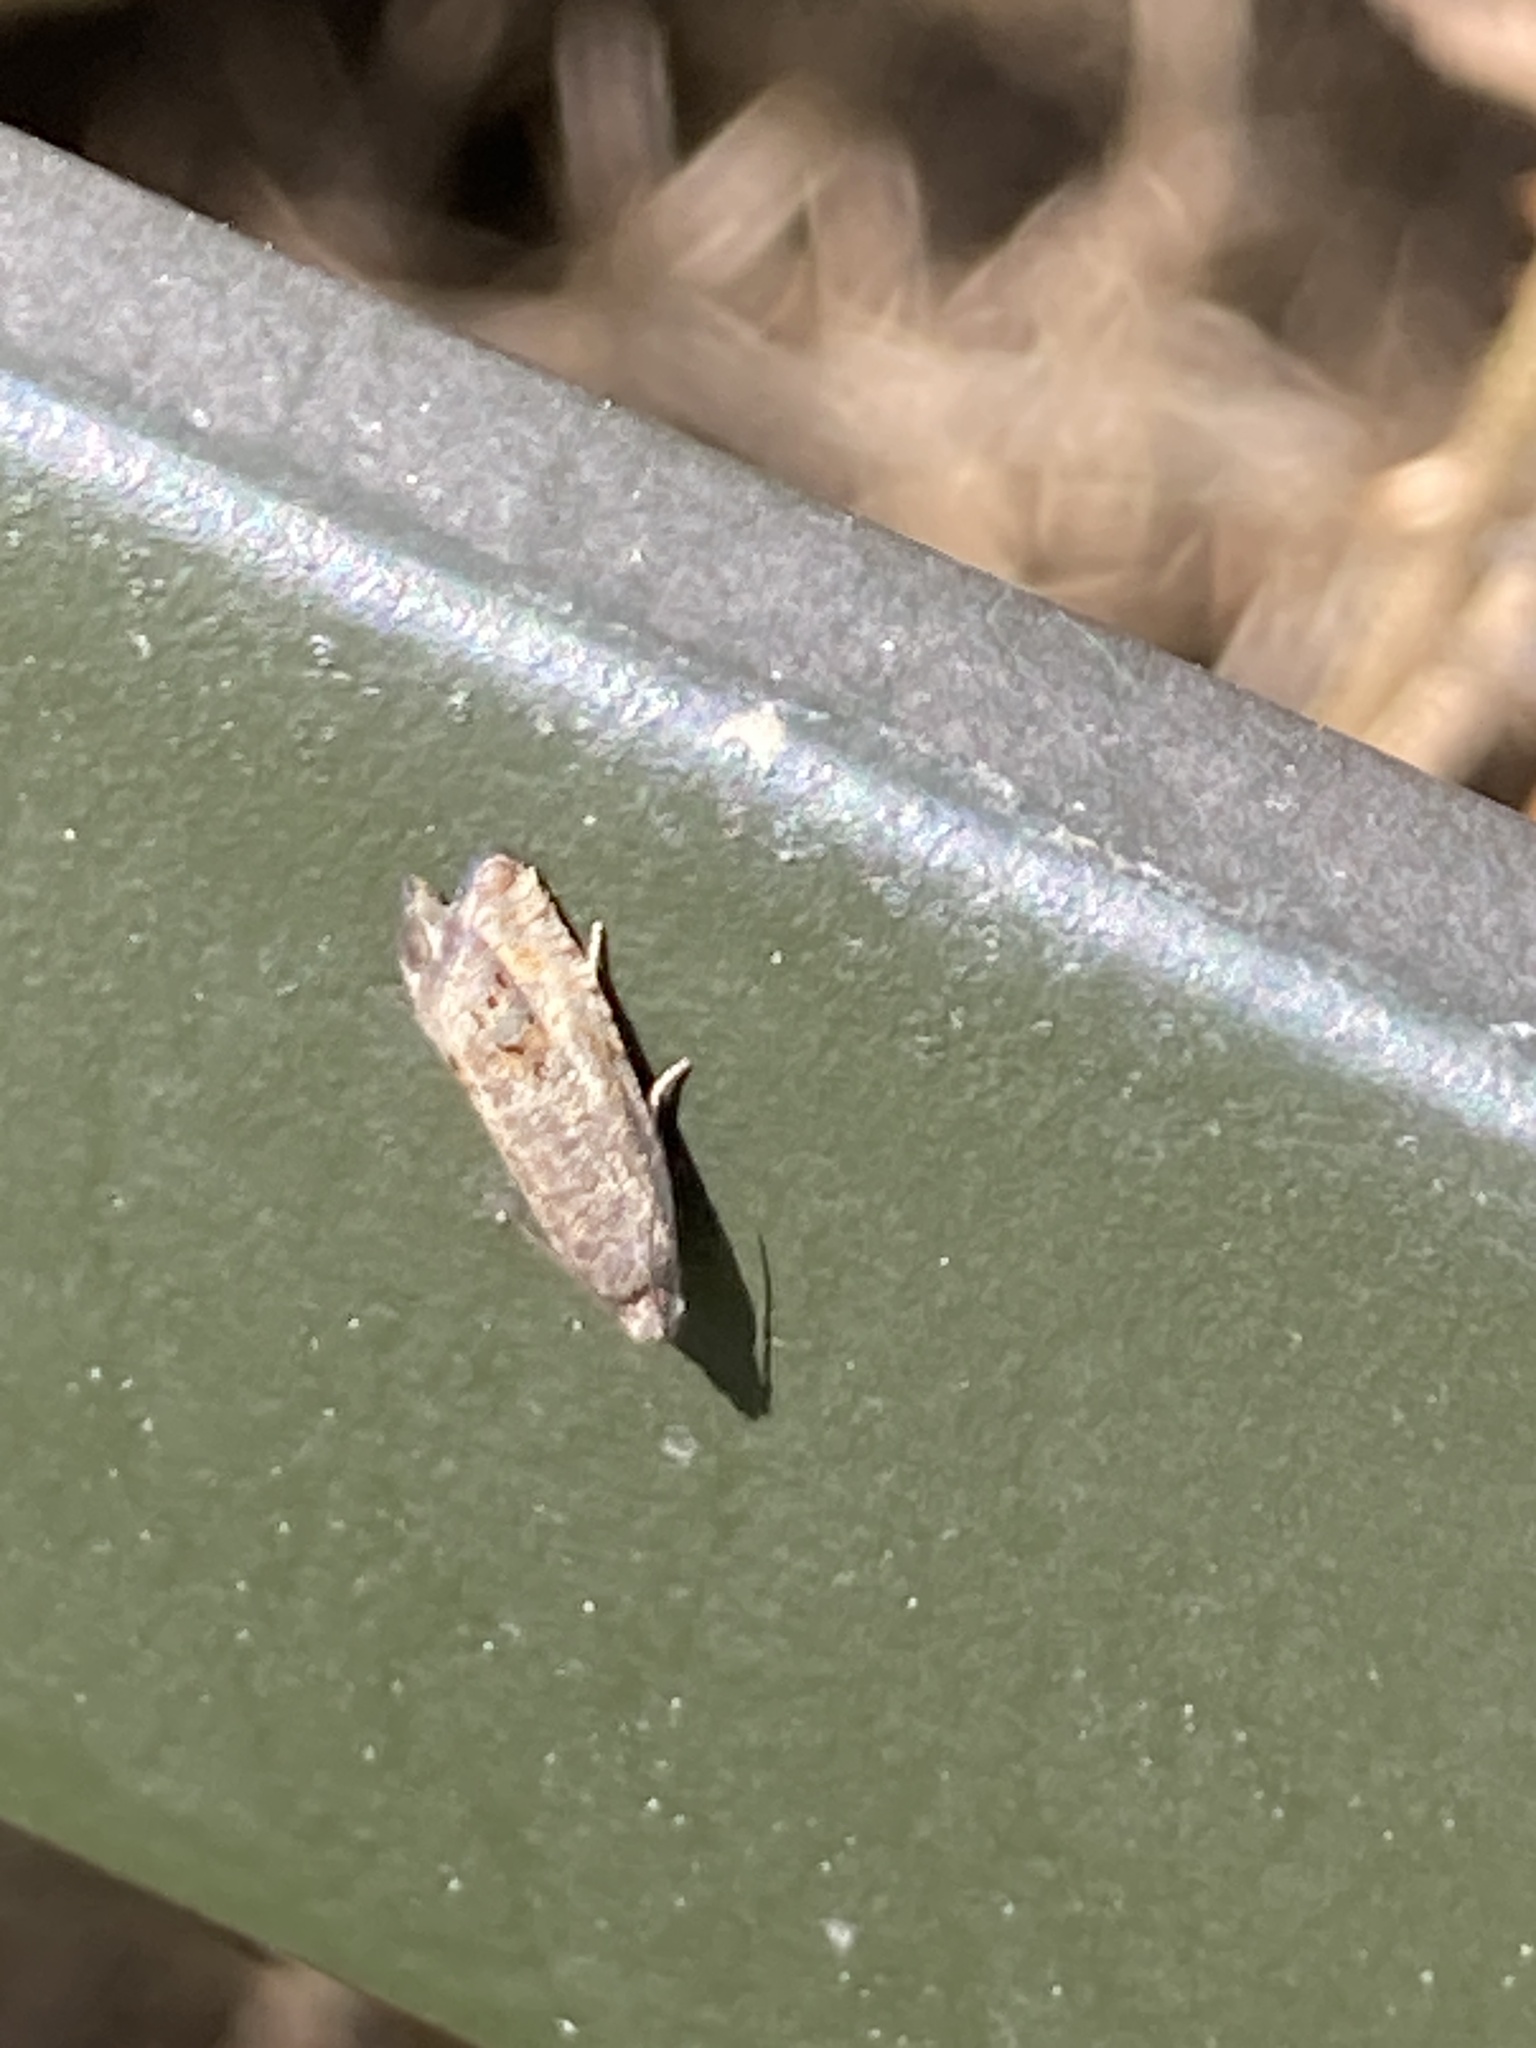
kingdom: Animalia
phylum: Arthropoda
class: Insecta
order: Lepidoptera
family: Tortricidae
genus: Cydia
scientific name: Cydia succedana
